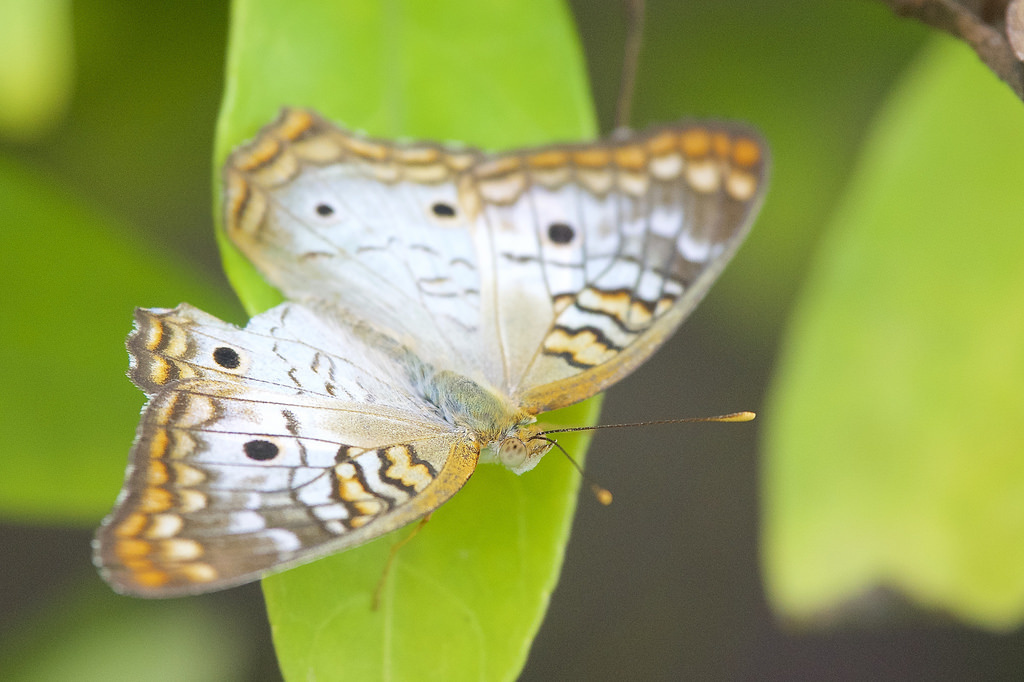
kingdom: Animalia
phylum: Arthropoda
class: Insecta
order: Lepidoptera
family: Nymphalidae
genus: Anartia
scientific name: Anartia jatrophae
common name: White peacock
